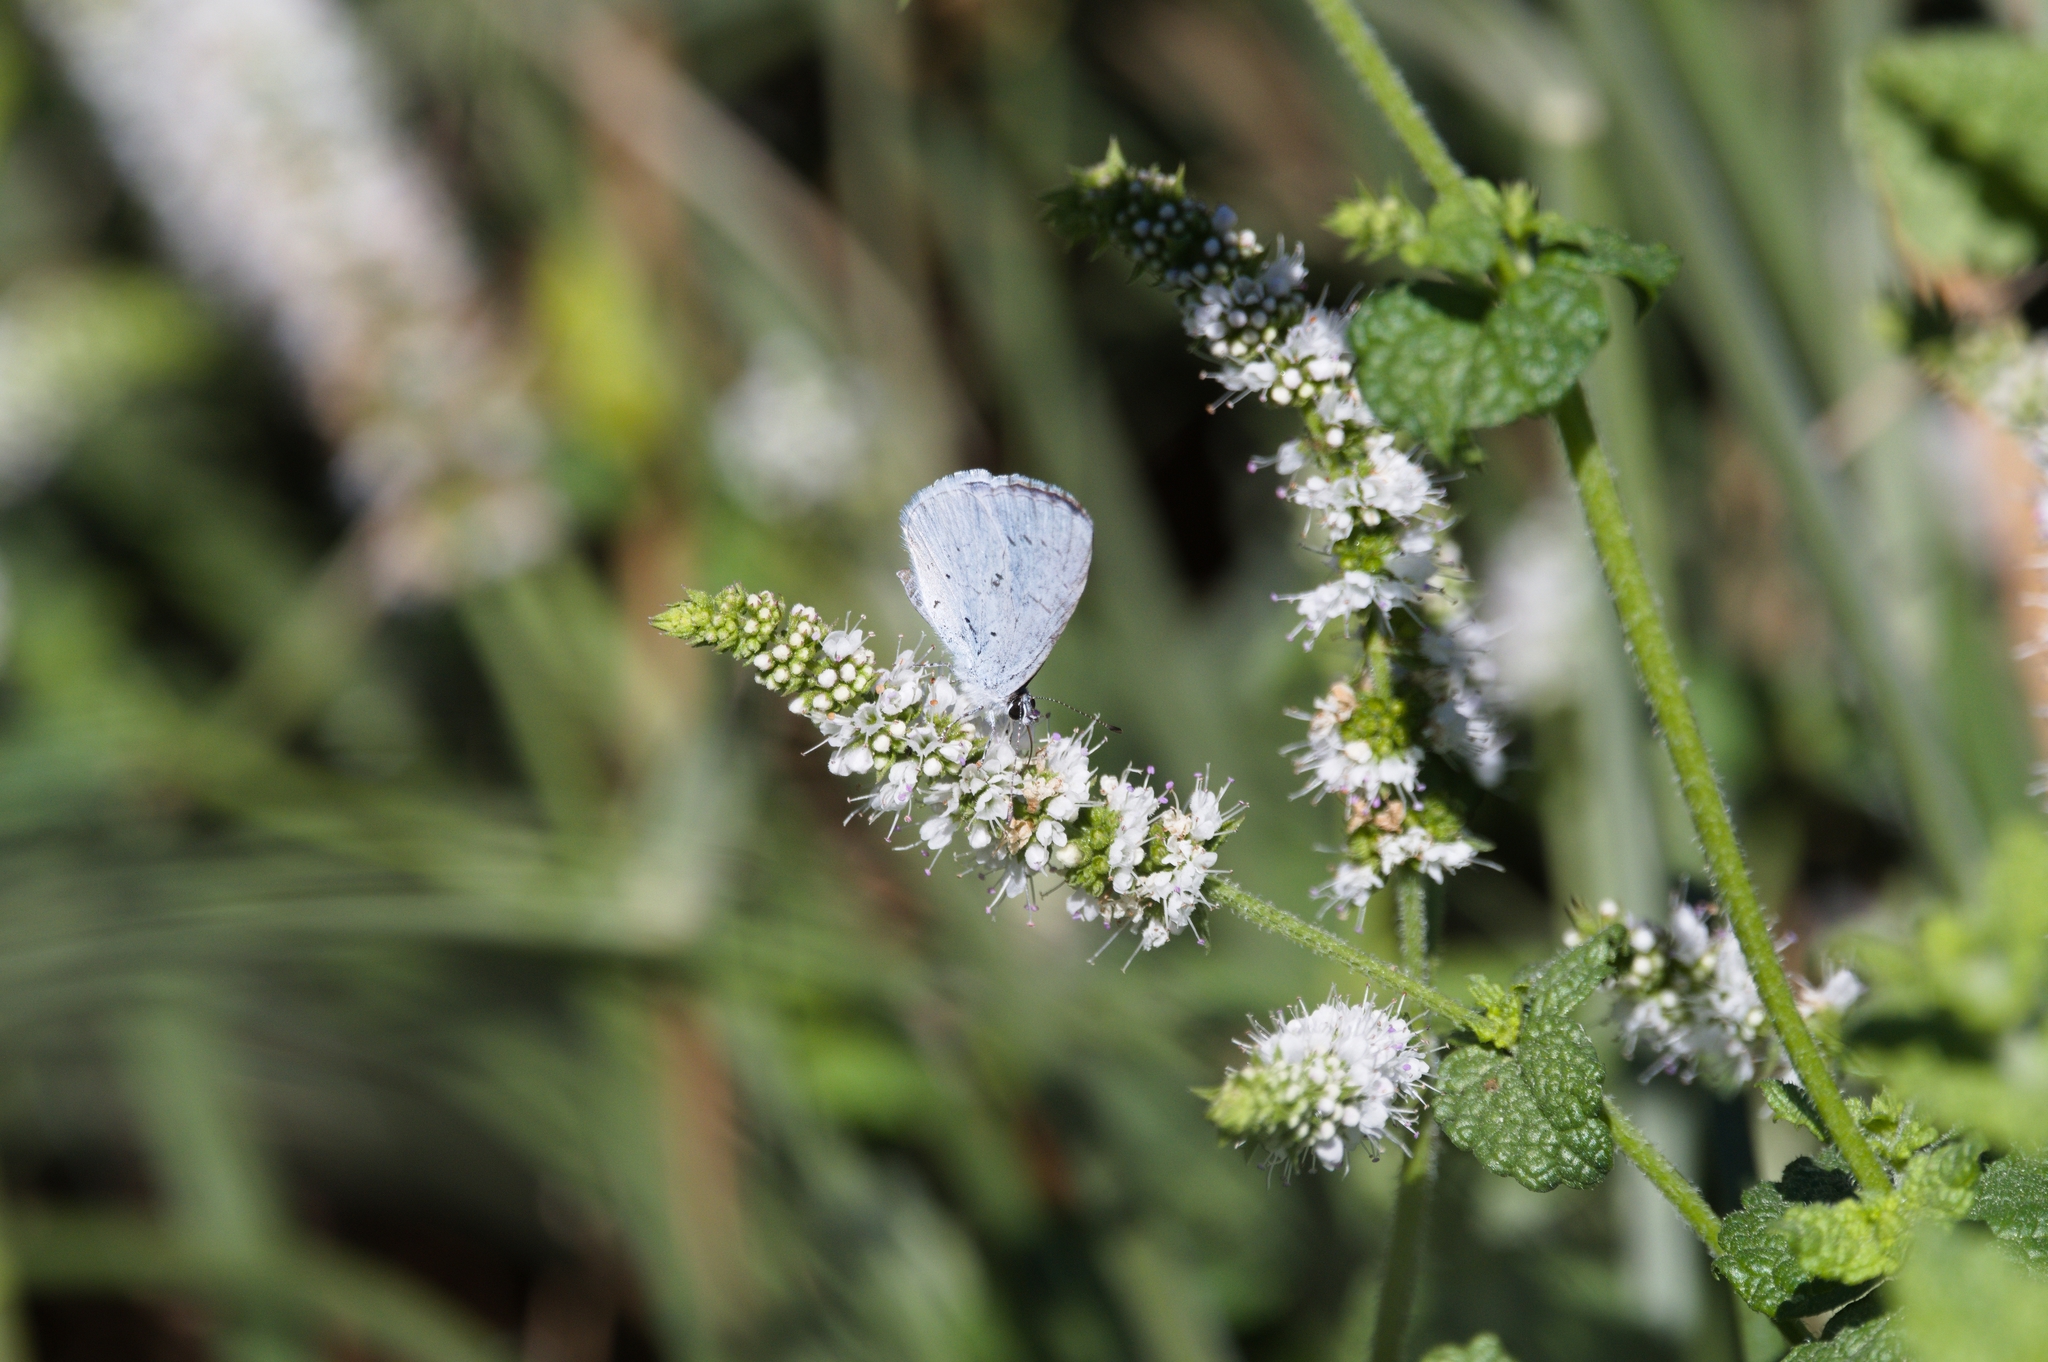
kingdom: Animalia
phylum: Arthropoda
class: Insecta
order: Lepidoptera
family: Lycaenidae
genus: Celastrina
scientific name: Celastrina argiolus
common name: Holly blue
